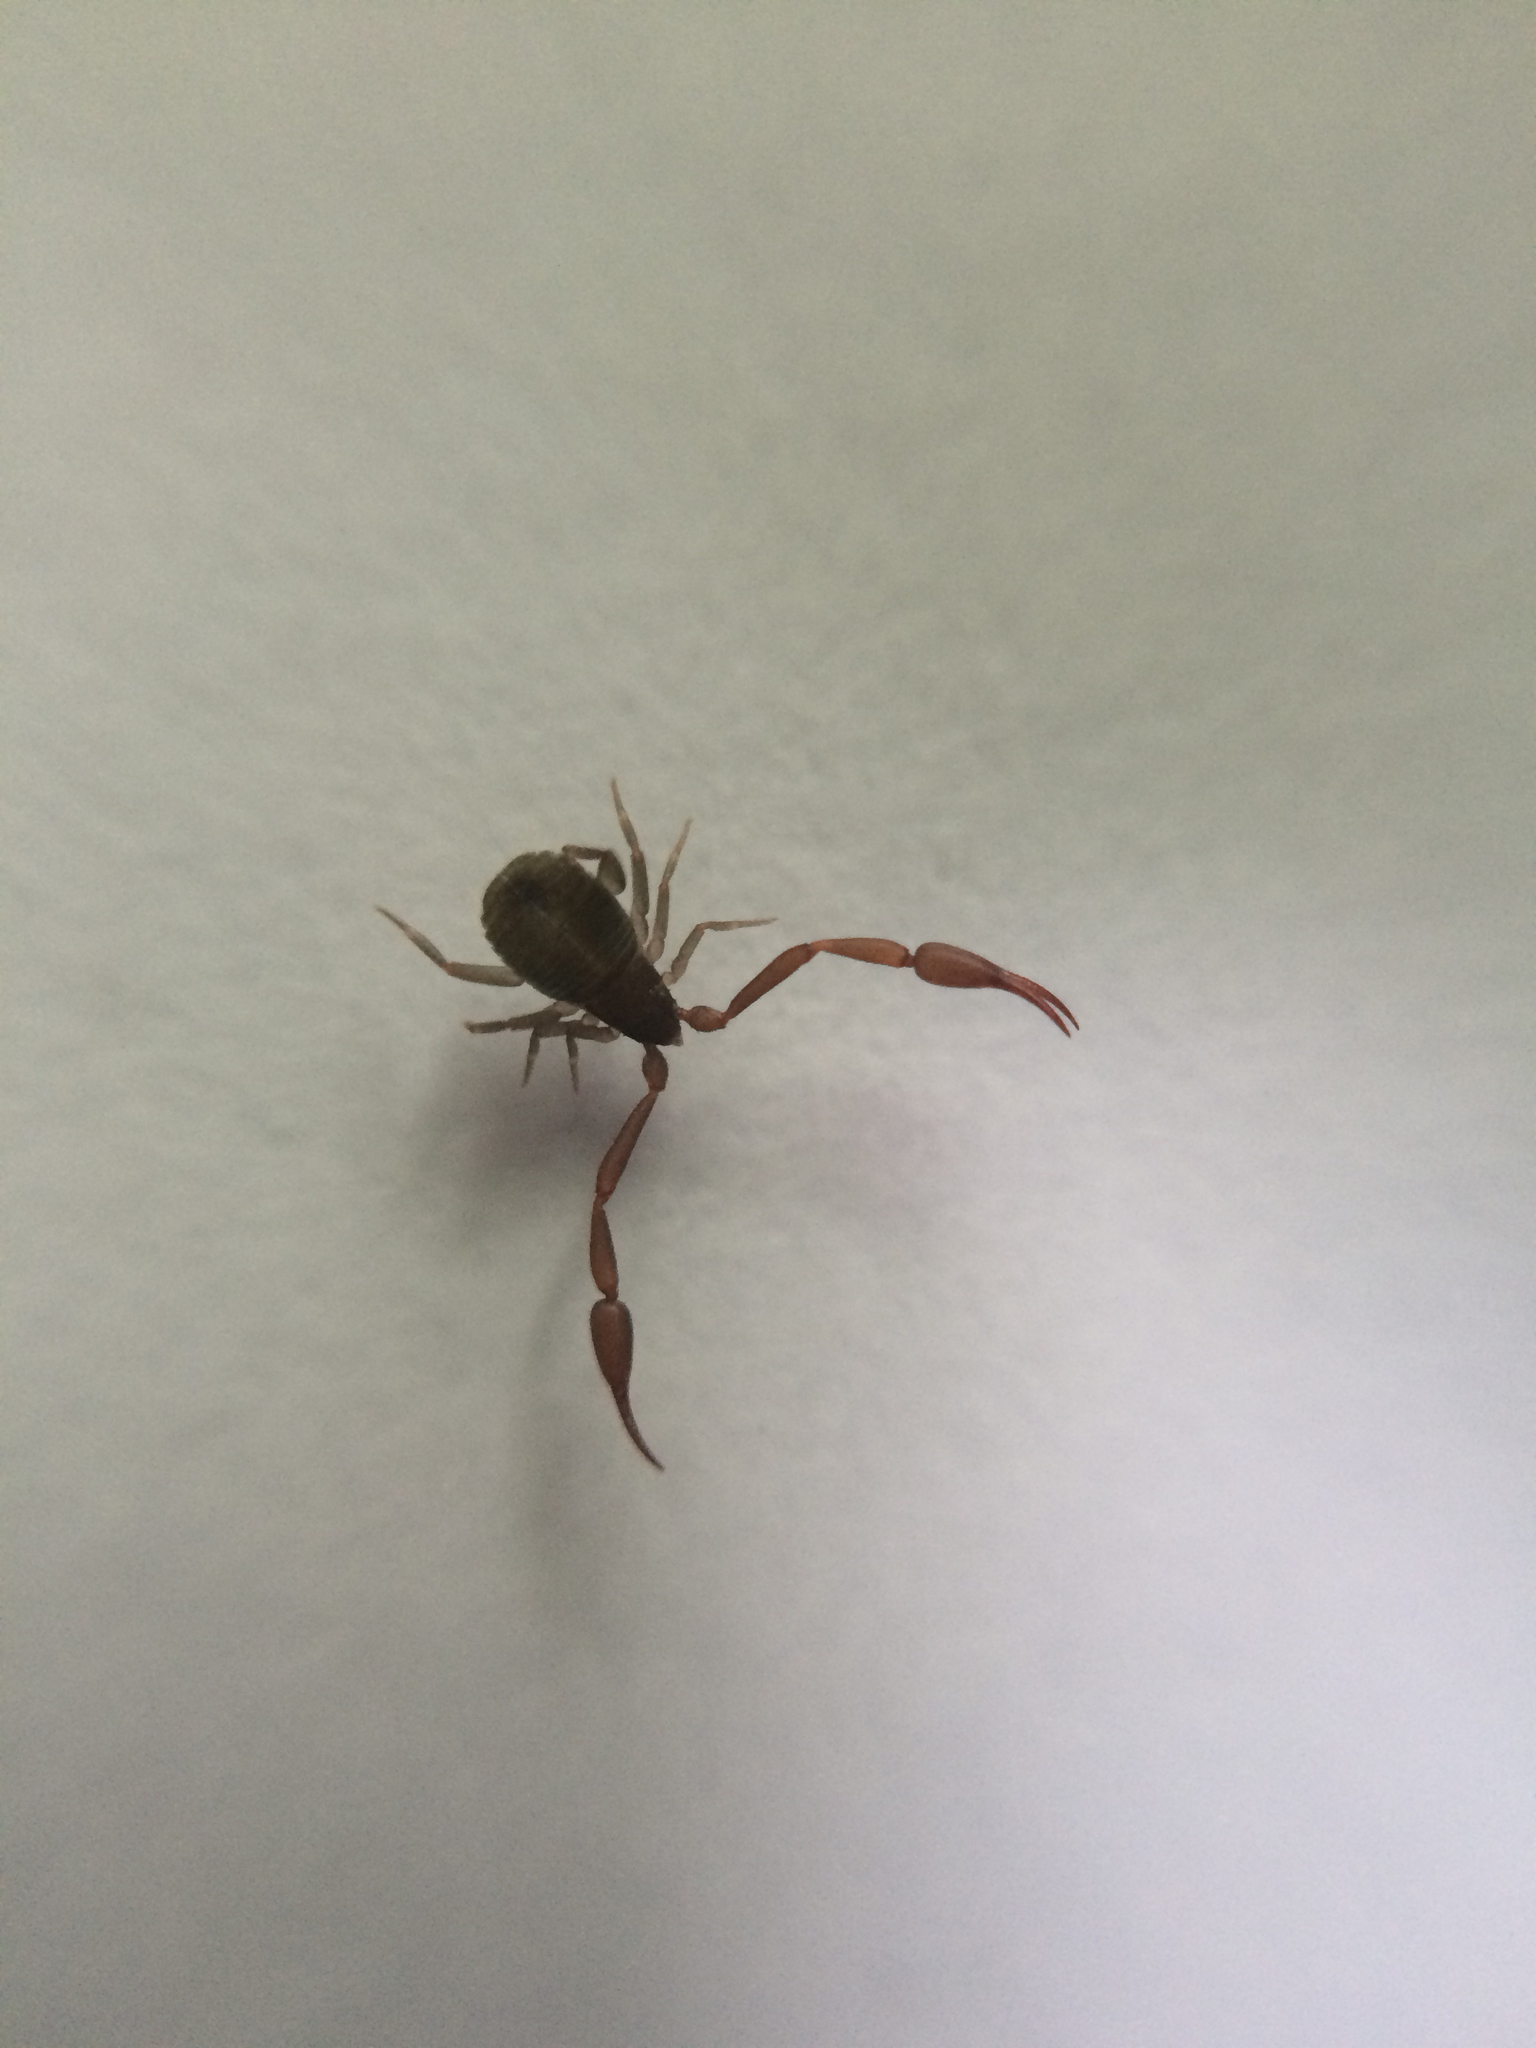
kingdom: Animalia
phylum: Arthropoda
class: Arachnida
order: Pseudoscorpiones
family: Cheliferidae
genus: Chelifer
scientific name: Chelifer cancroides
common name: House false-scorpion
